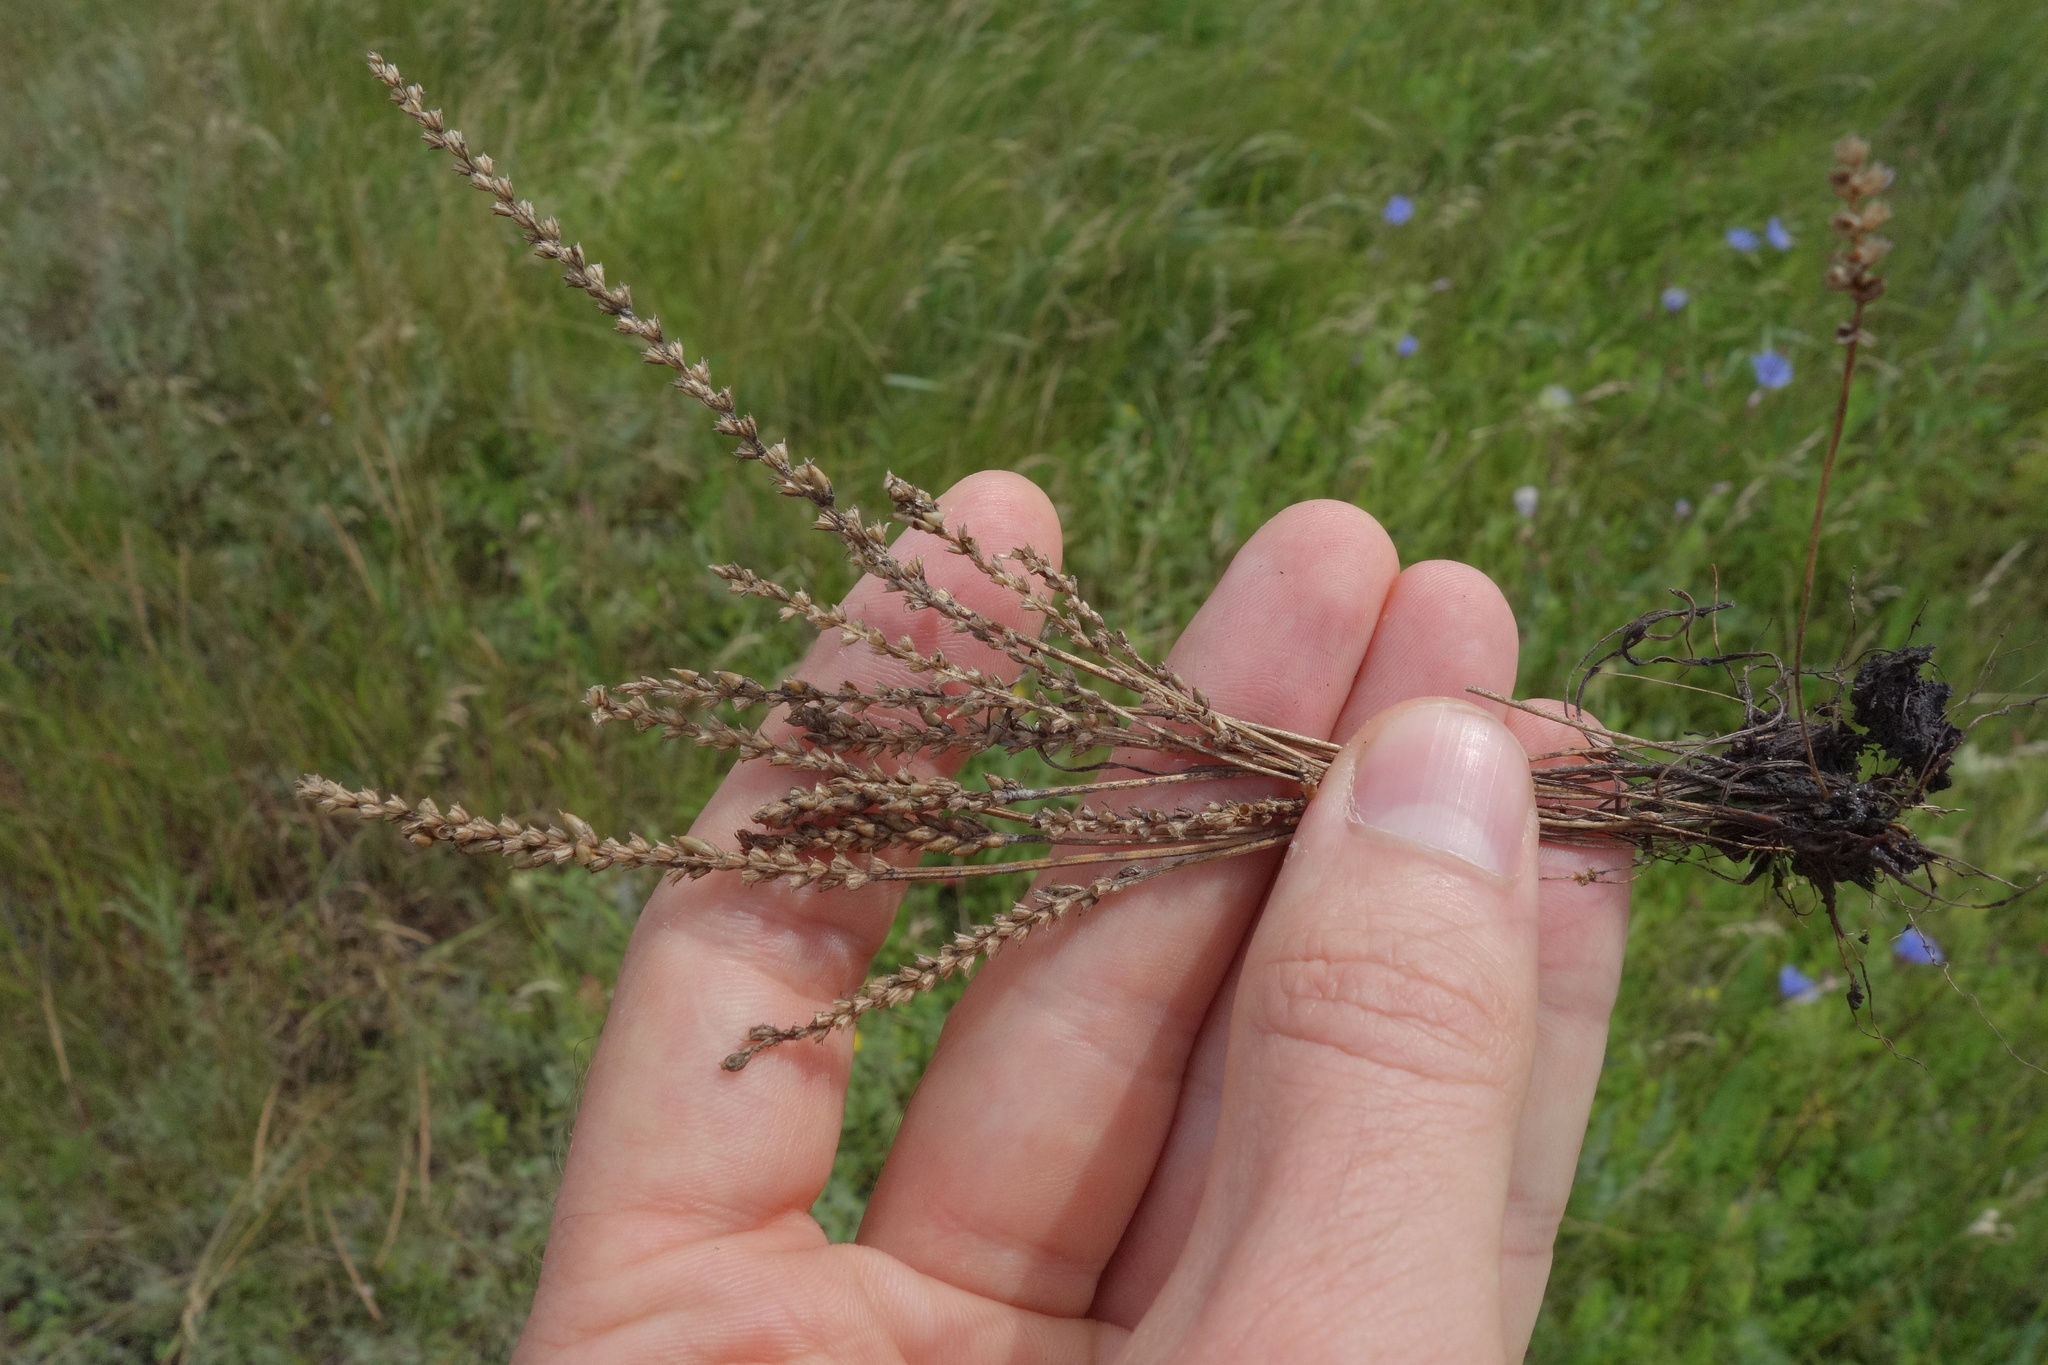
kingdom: Plantae
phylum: Tracheophyta
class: Magnoliopsida
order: Lamiales
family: Plantaginaceae
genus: Plantago
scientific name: Plantago tenuiflora
